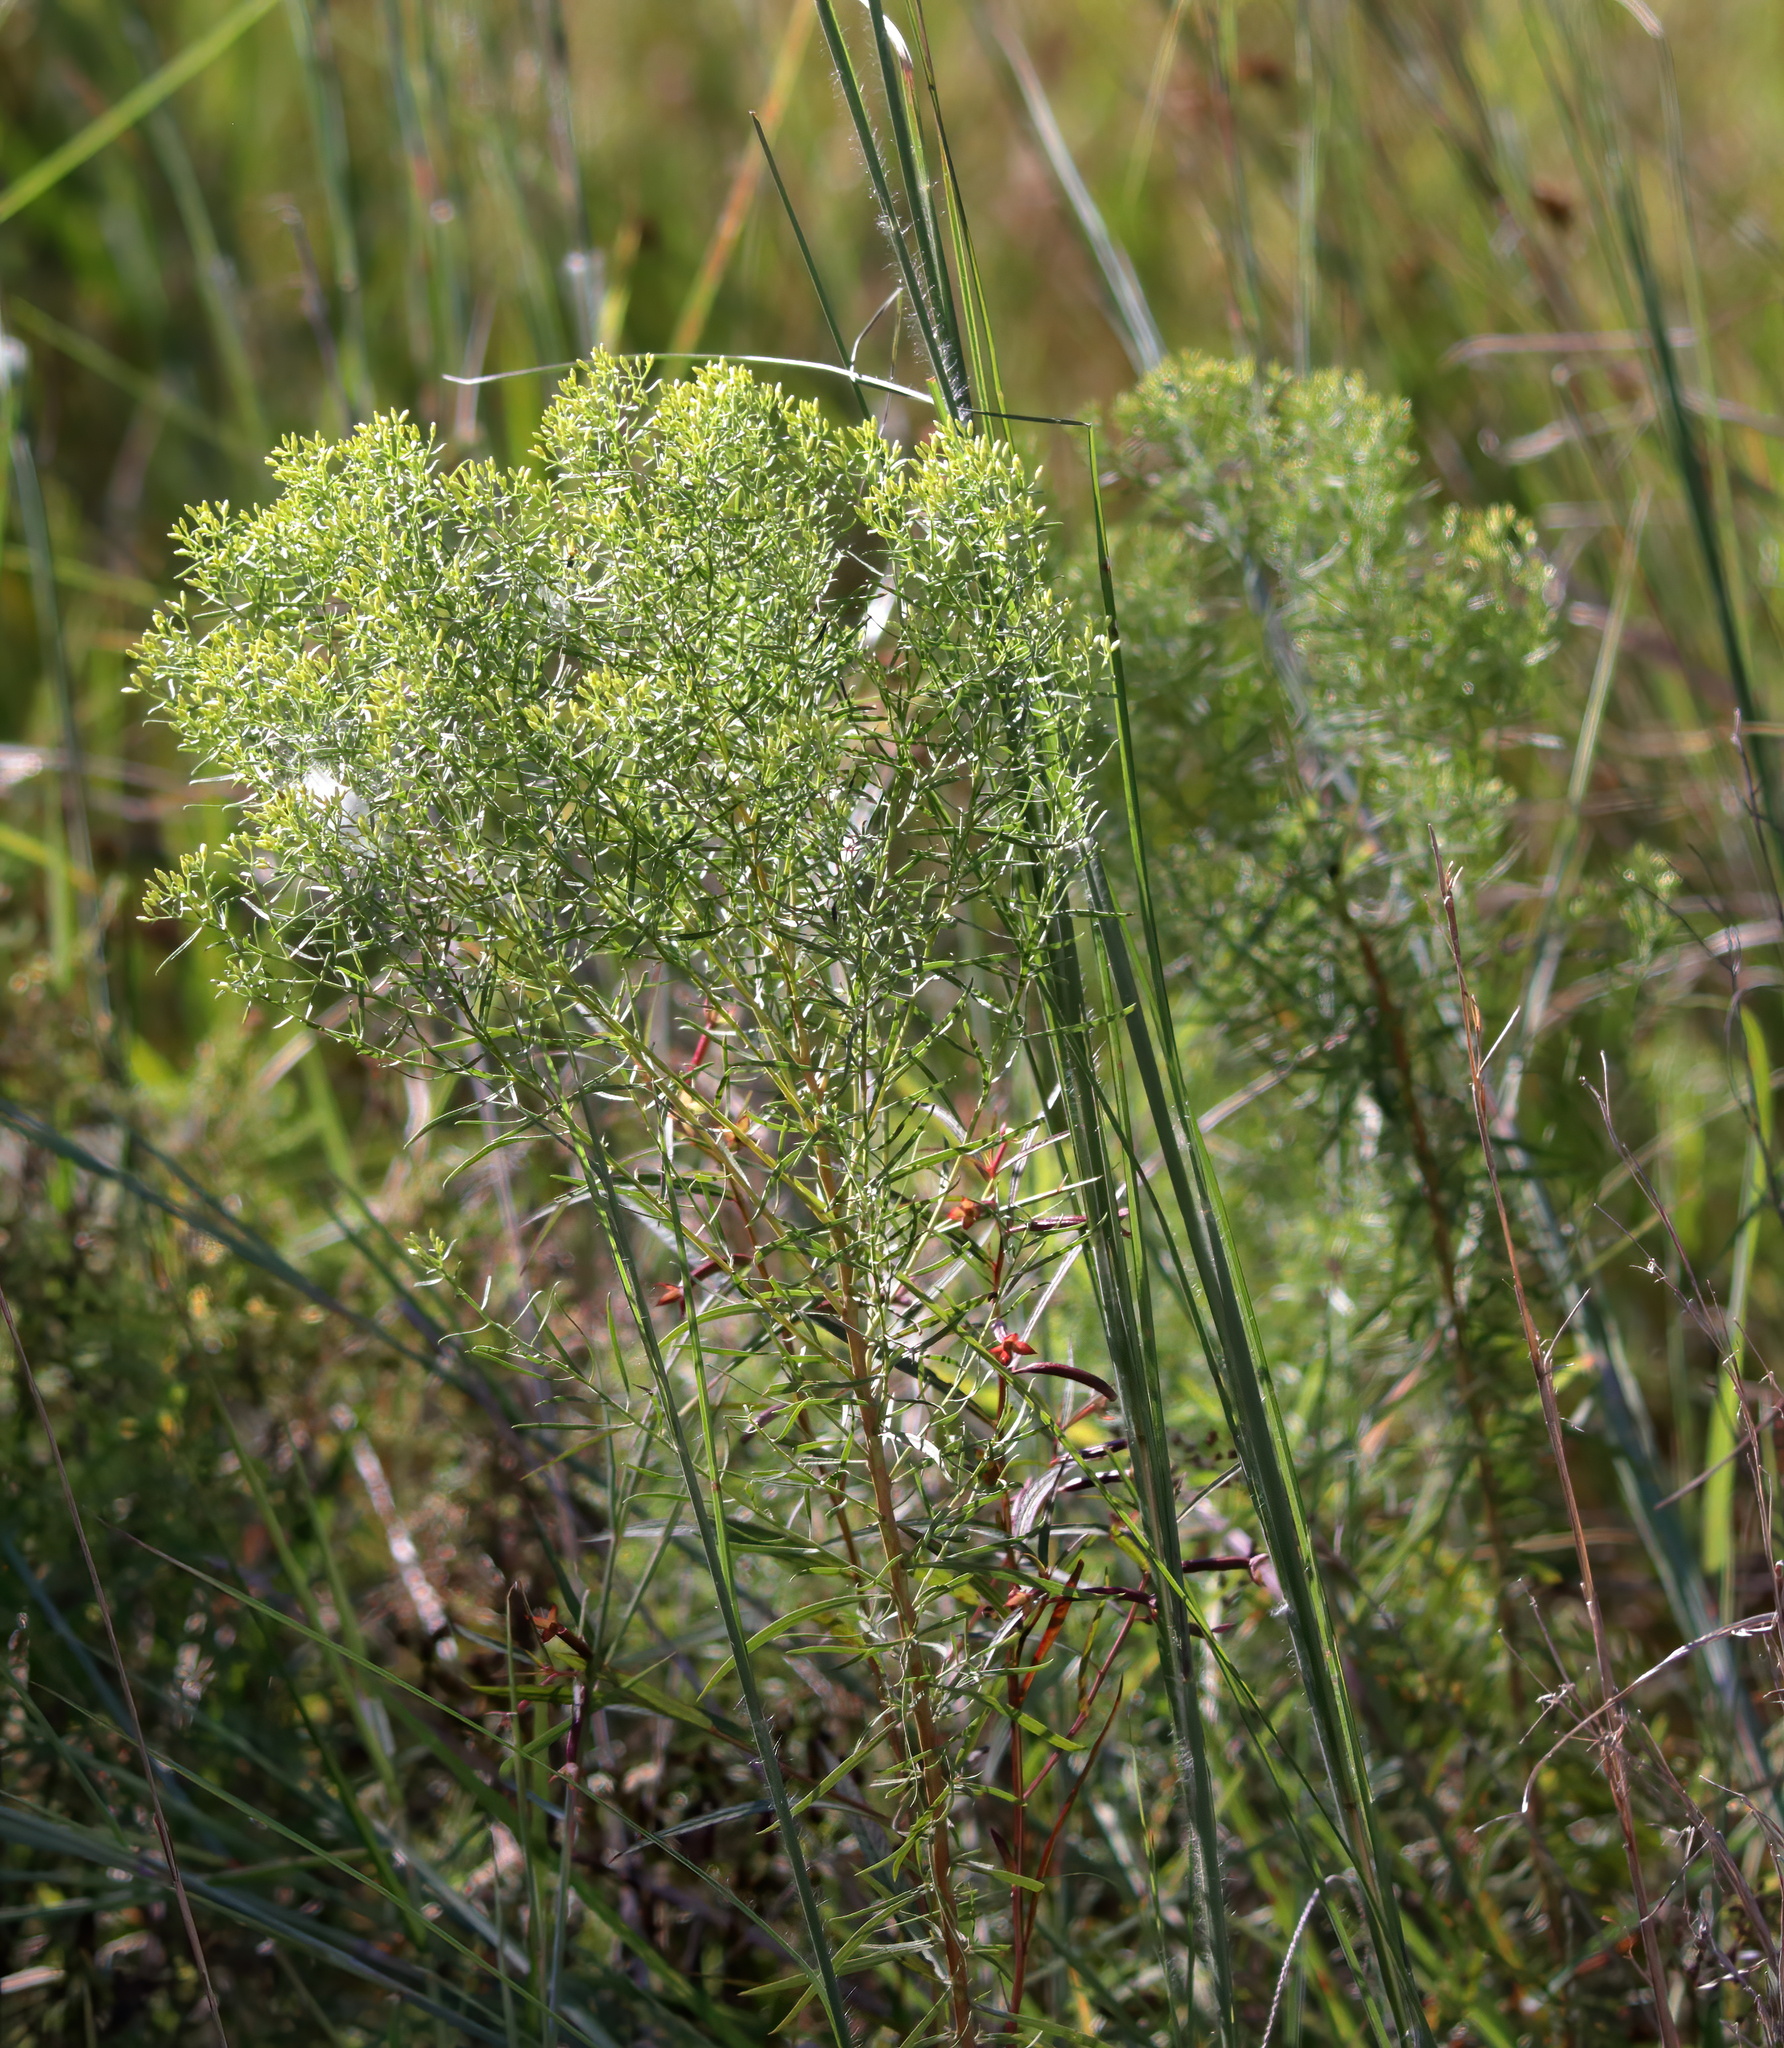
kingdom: Plantae
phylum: Tracheophyta
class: Magnoliopsida
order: Asterales
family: Asteraceae
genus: Euthamia
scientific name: Euthamia caroliniana
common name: Coastal plain goldentop
